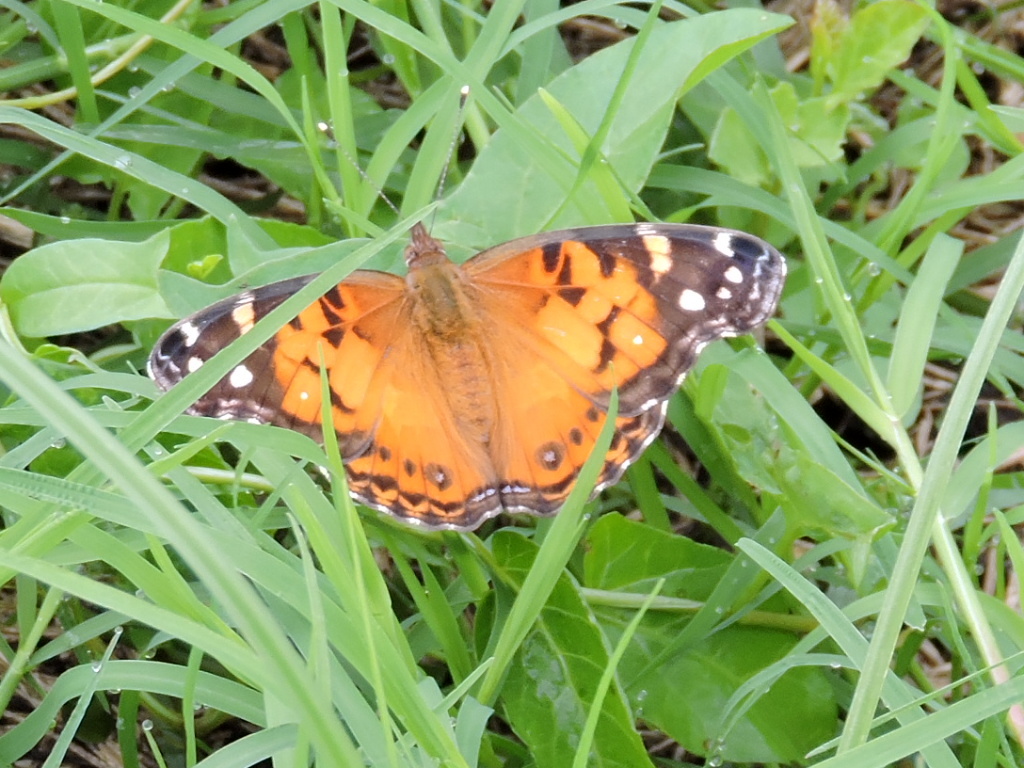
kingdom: Animalia
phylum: Arthropoda
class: Insecta
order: Lepidoptera
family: Nymphalidae
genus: Vanessa
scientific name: Vanessa virginiensis
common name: American lady
